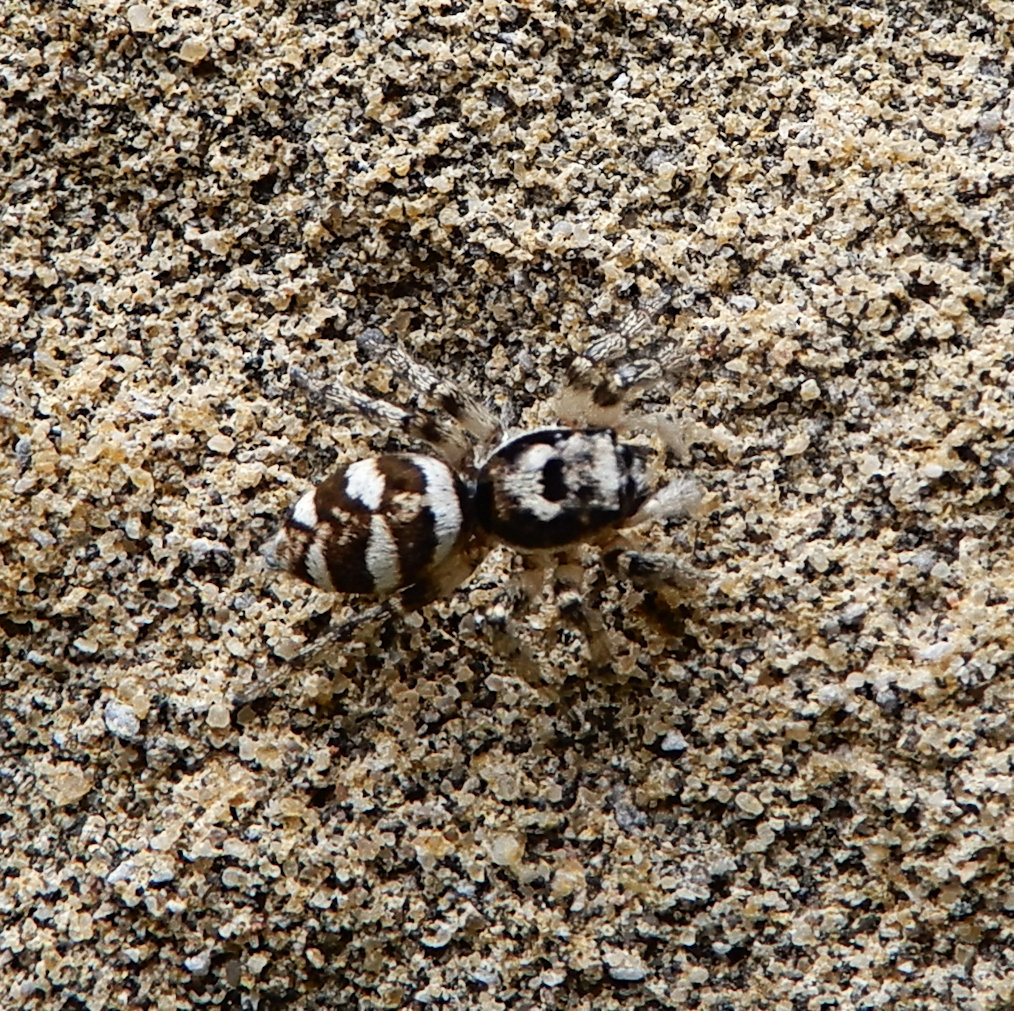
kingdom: Animalia
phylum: Arthropoda
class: Arachnida
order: Araneae
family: Salticidae
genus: Salticus
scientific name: Salticus scenicus
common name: Zebra jumper
